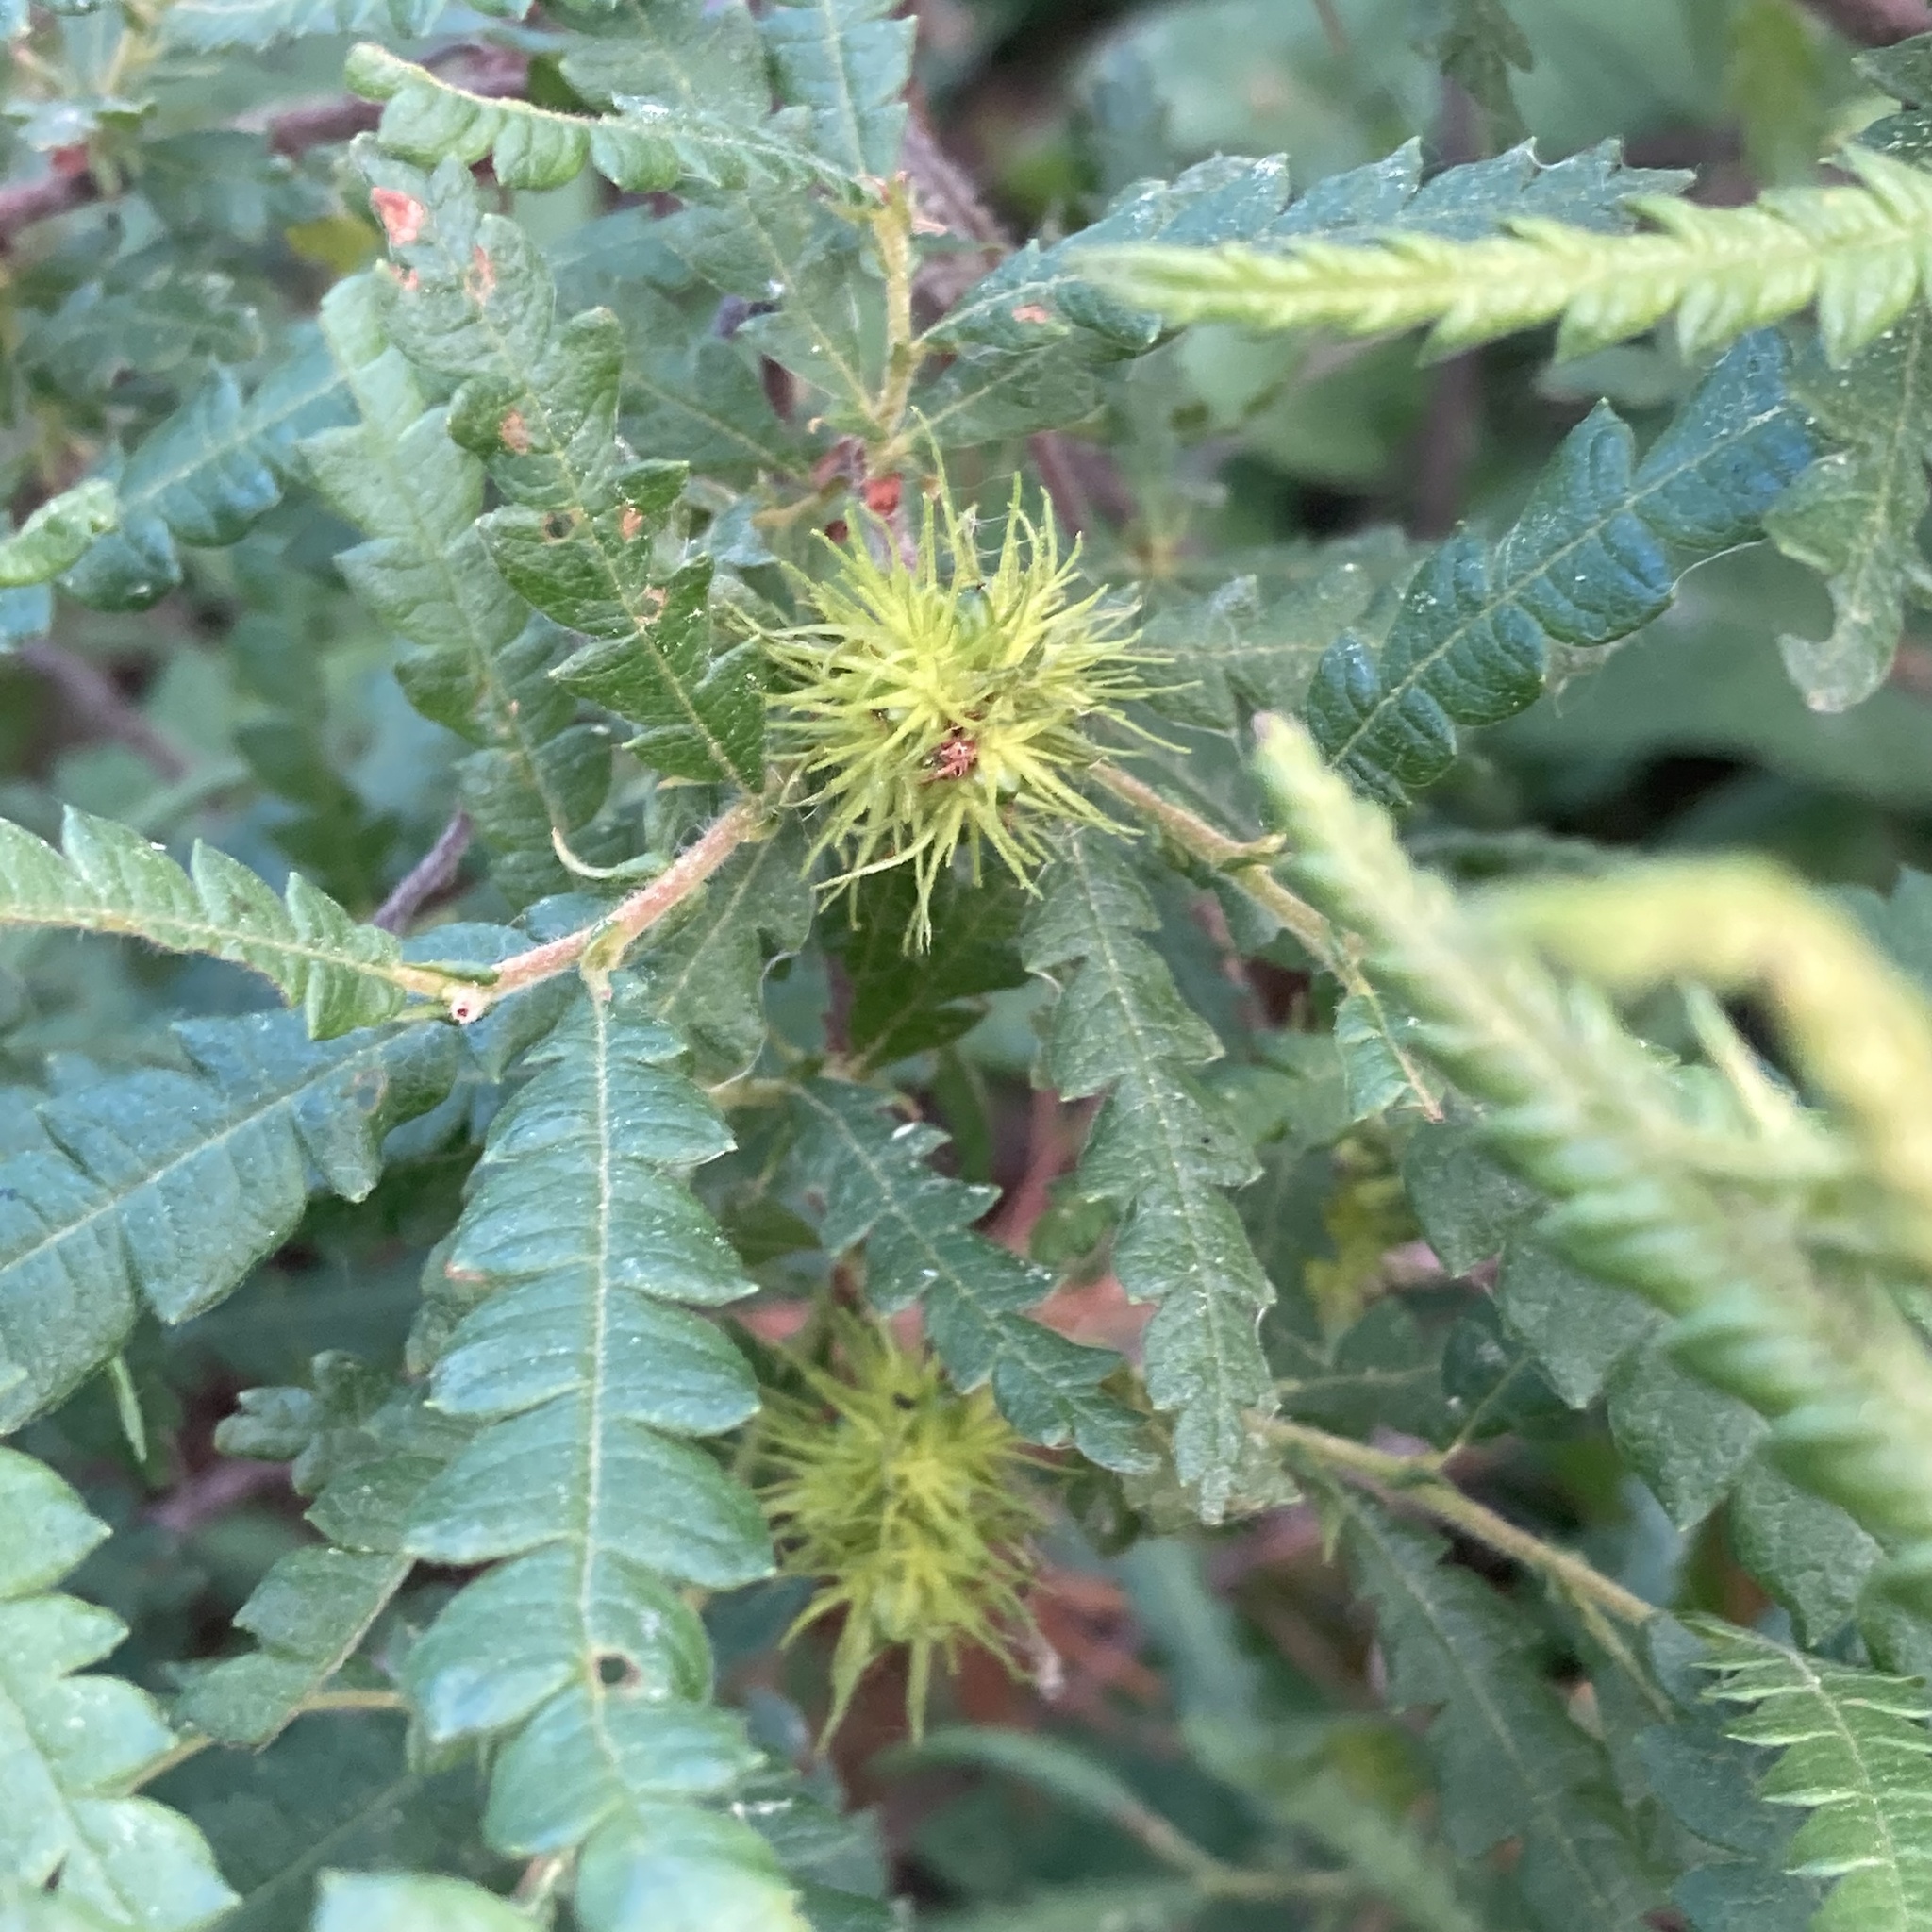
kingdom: Plantae
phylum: Tracheophyta
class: Magnoliopsida
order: Fagales
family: Myricaceae
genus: Comptonia
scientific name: Comptonia peregrina
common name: Sweet-fern
